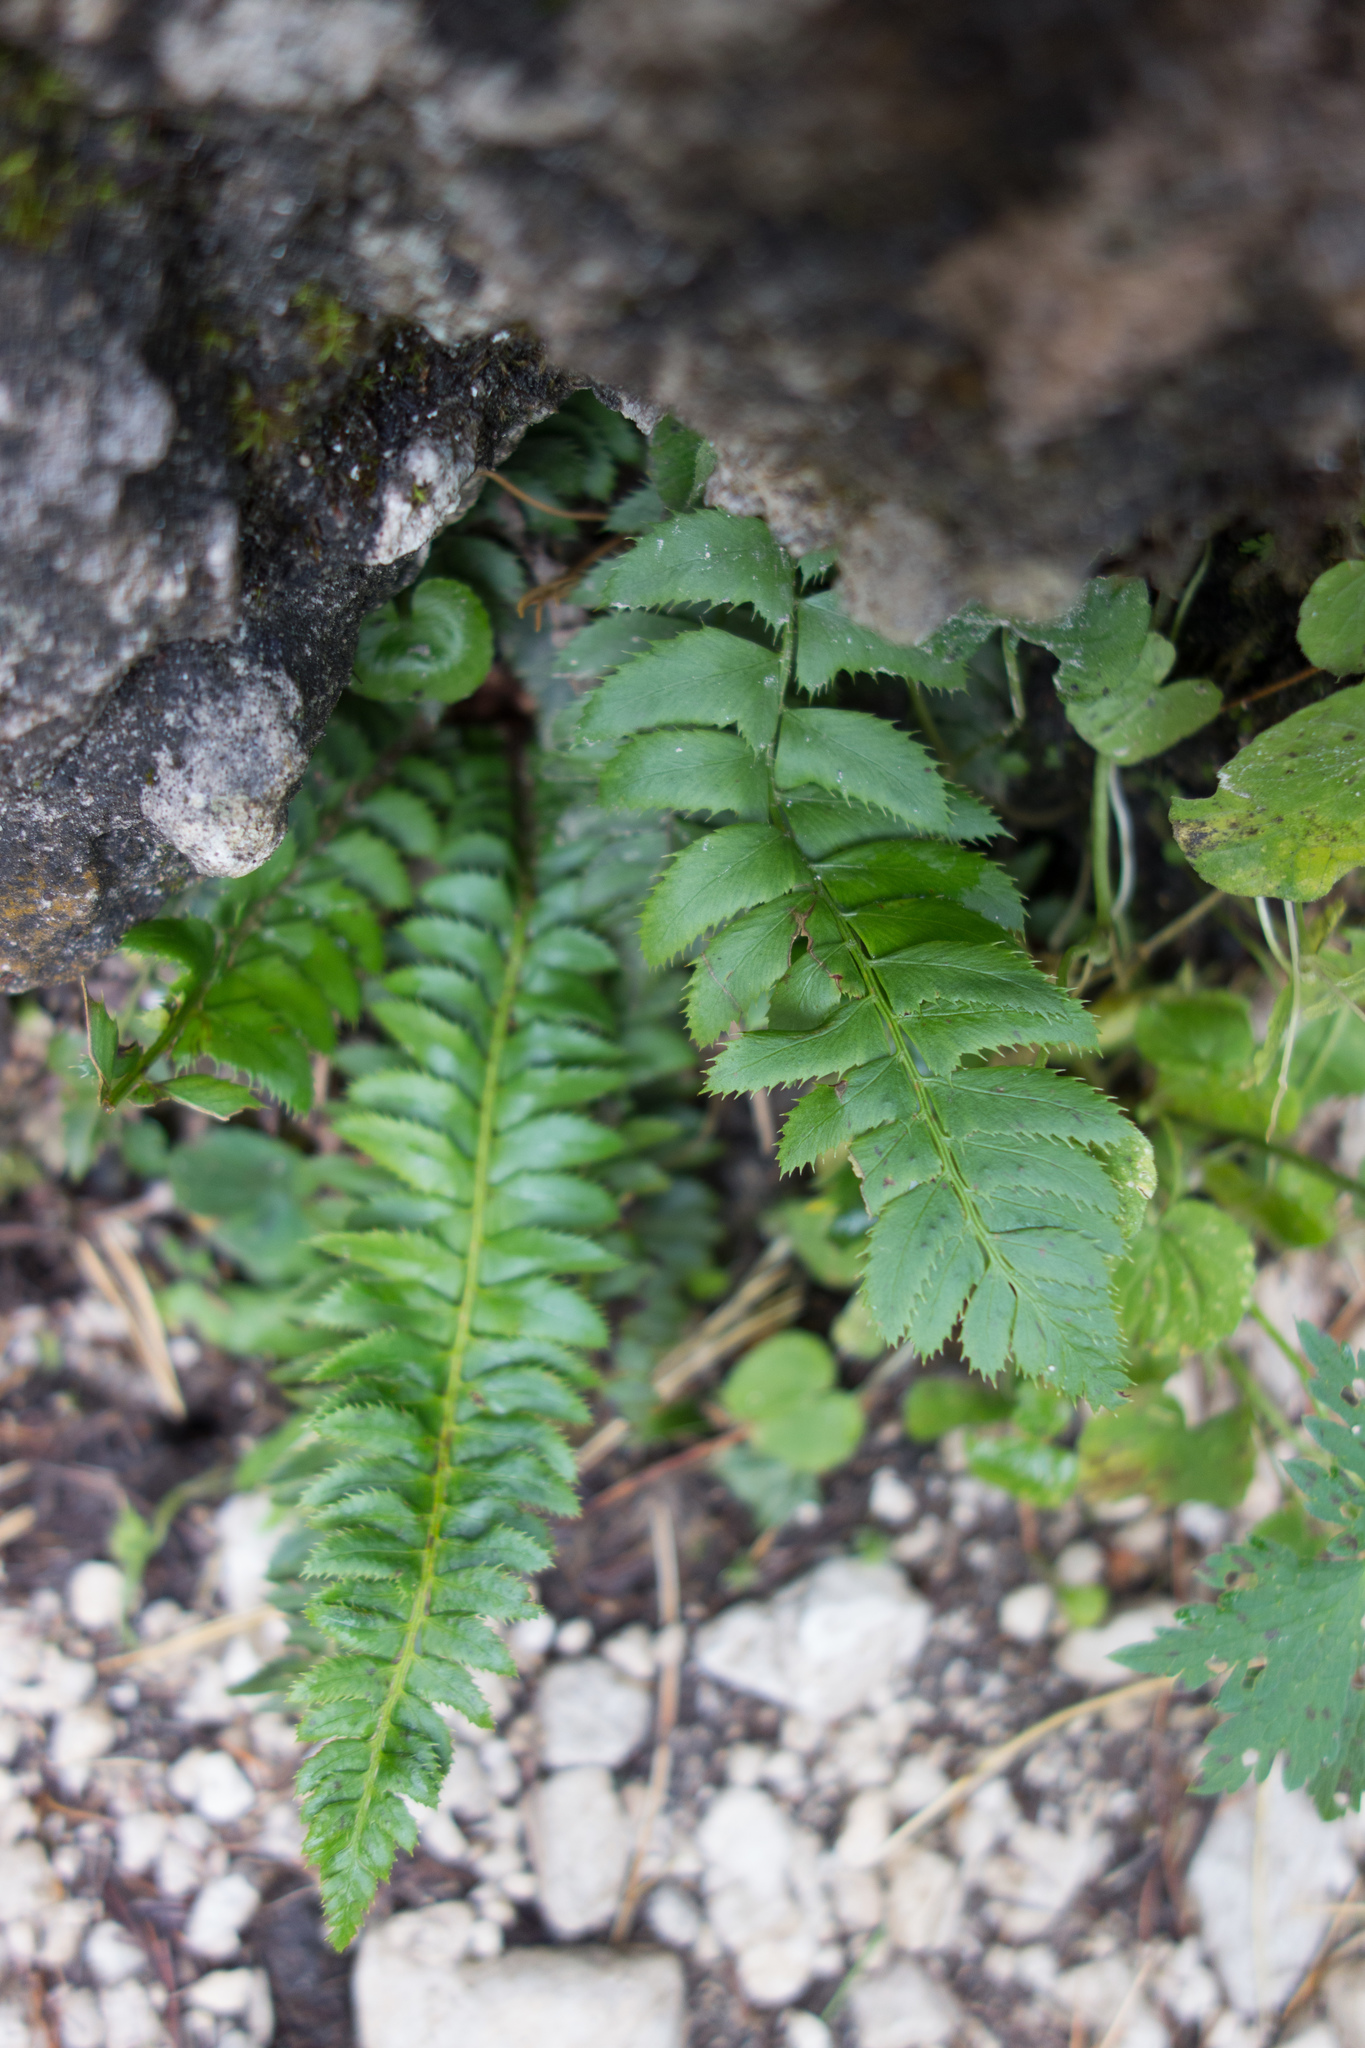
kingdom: Plantae
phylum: Tracheophyta
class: Polypodiopsida
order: Polypodiales
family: Dryopteridaceae
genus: Polystichum
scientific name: Polystichum lonchitis
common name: Holly fern
